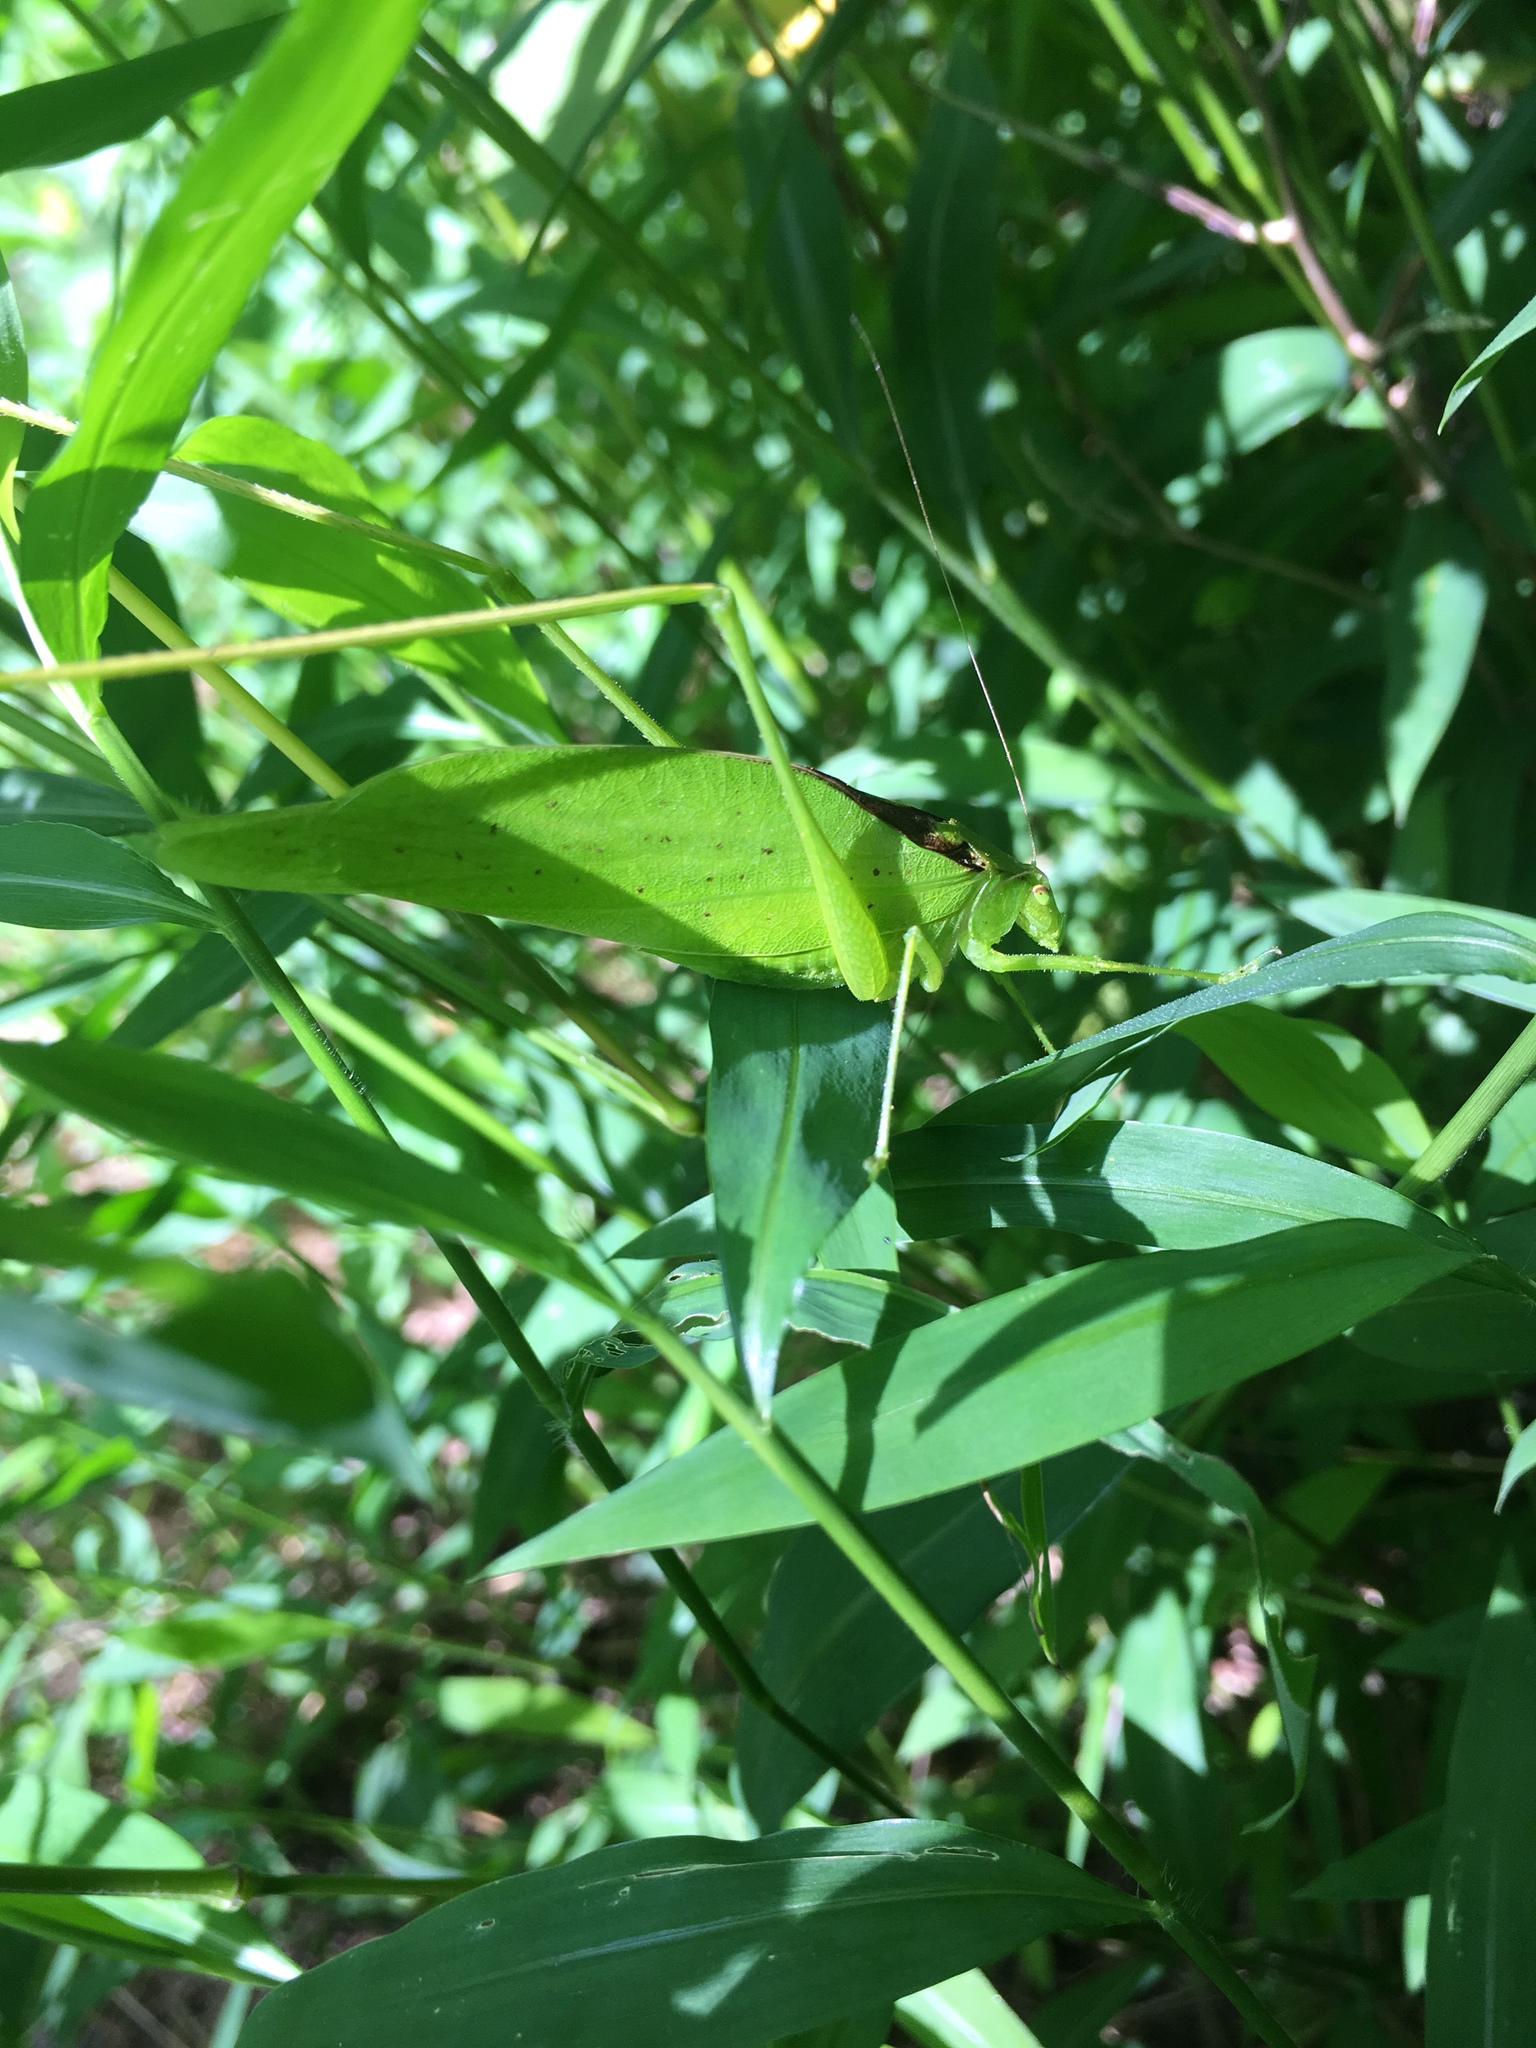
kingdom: Animalia
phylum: Arthropoda
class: Insecta
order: Orthoptera
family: Tettigoniidae
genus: Amblycorypha
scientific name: Amblycorypha
